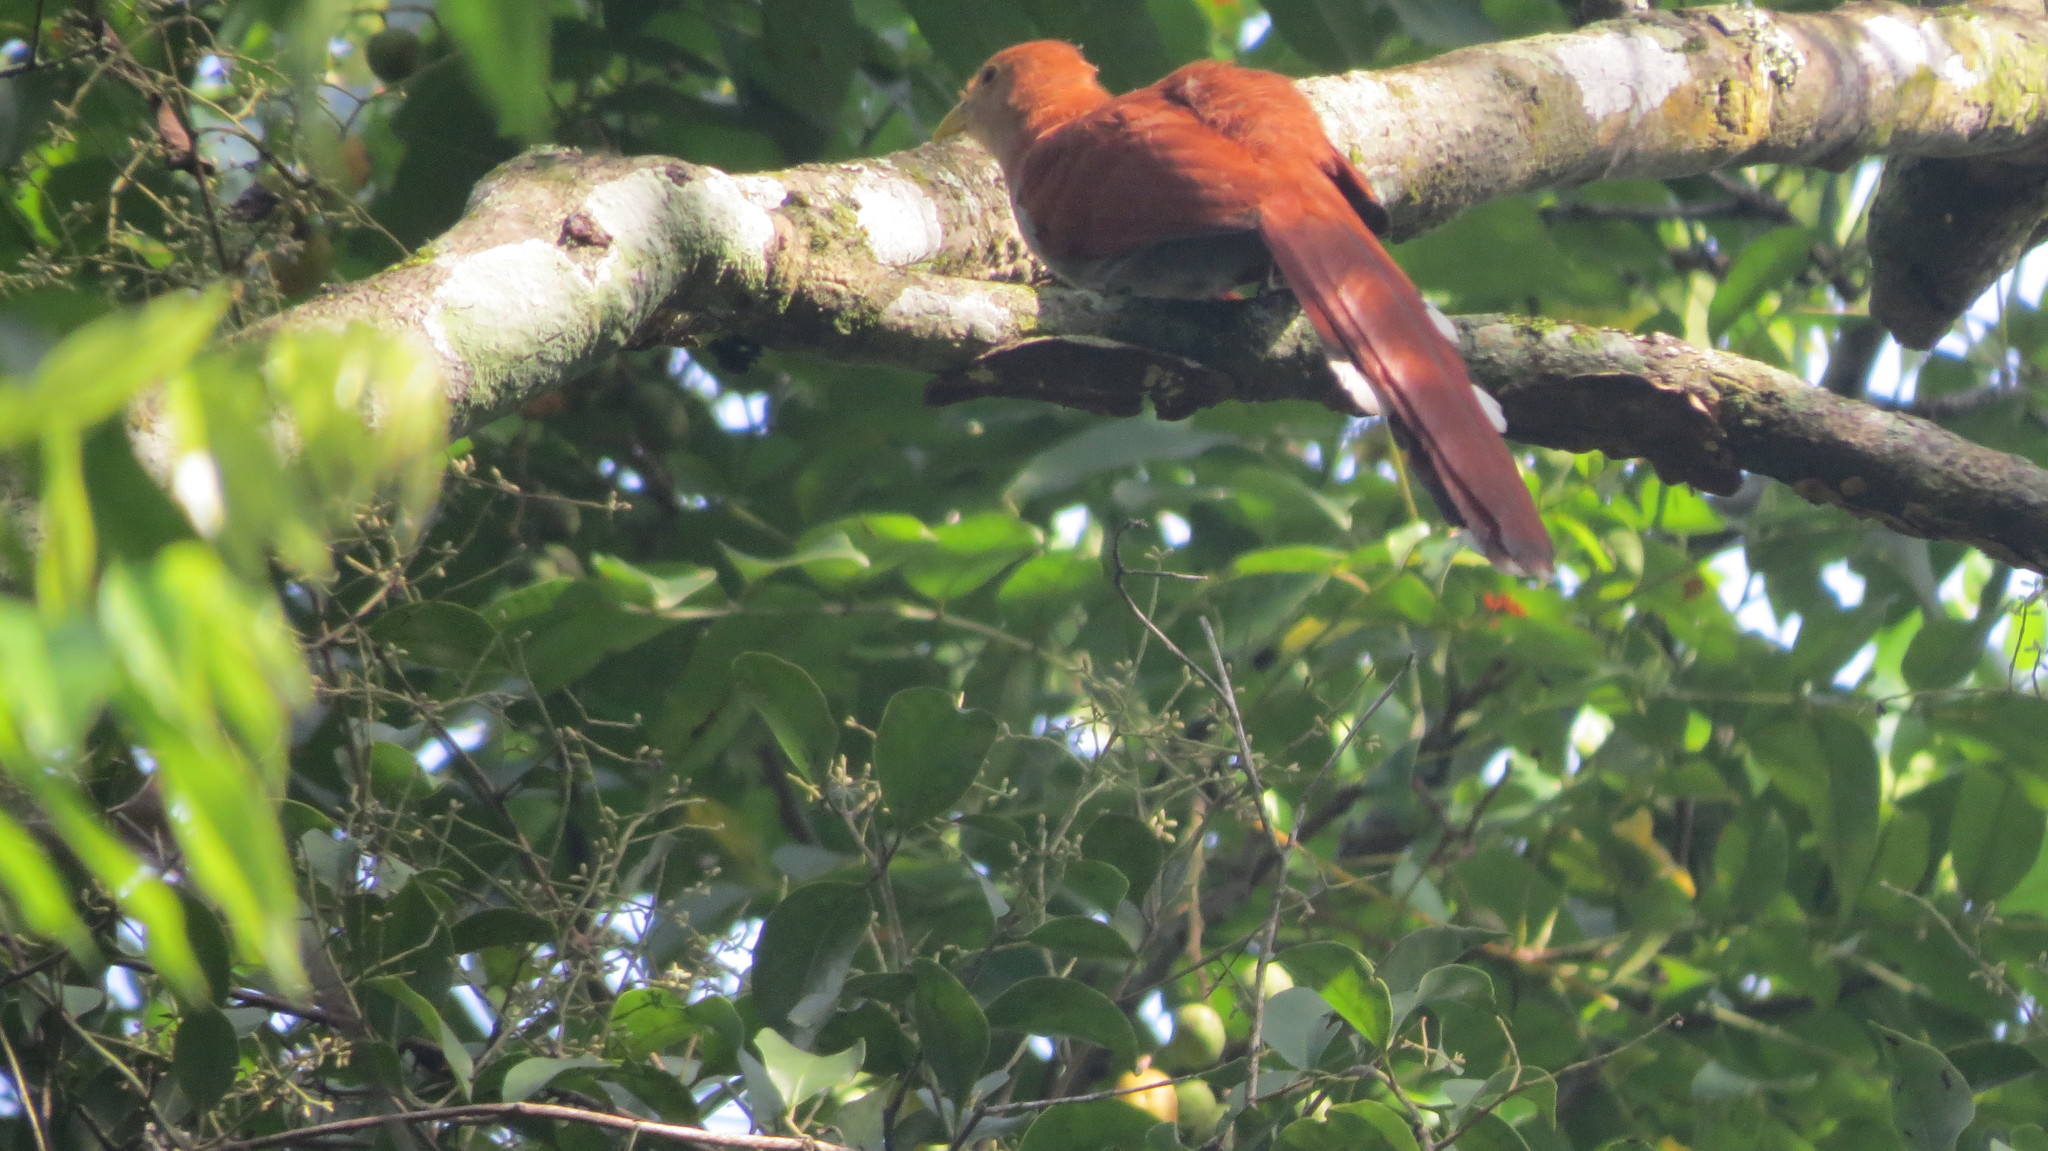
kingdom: Animalia
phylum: Chordata
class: Aves
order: Cuculiformes
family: Cuculidae
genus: Piaya
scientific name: Piaya cayana
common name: Squirrel cuckoo
